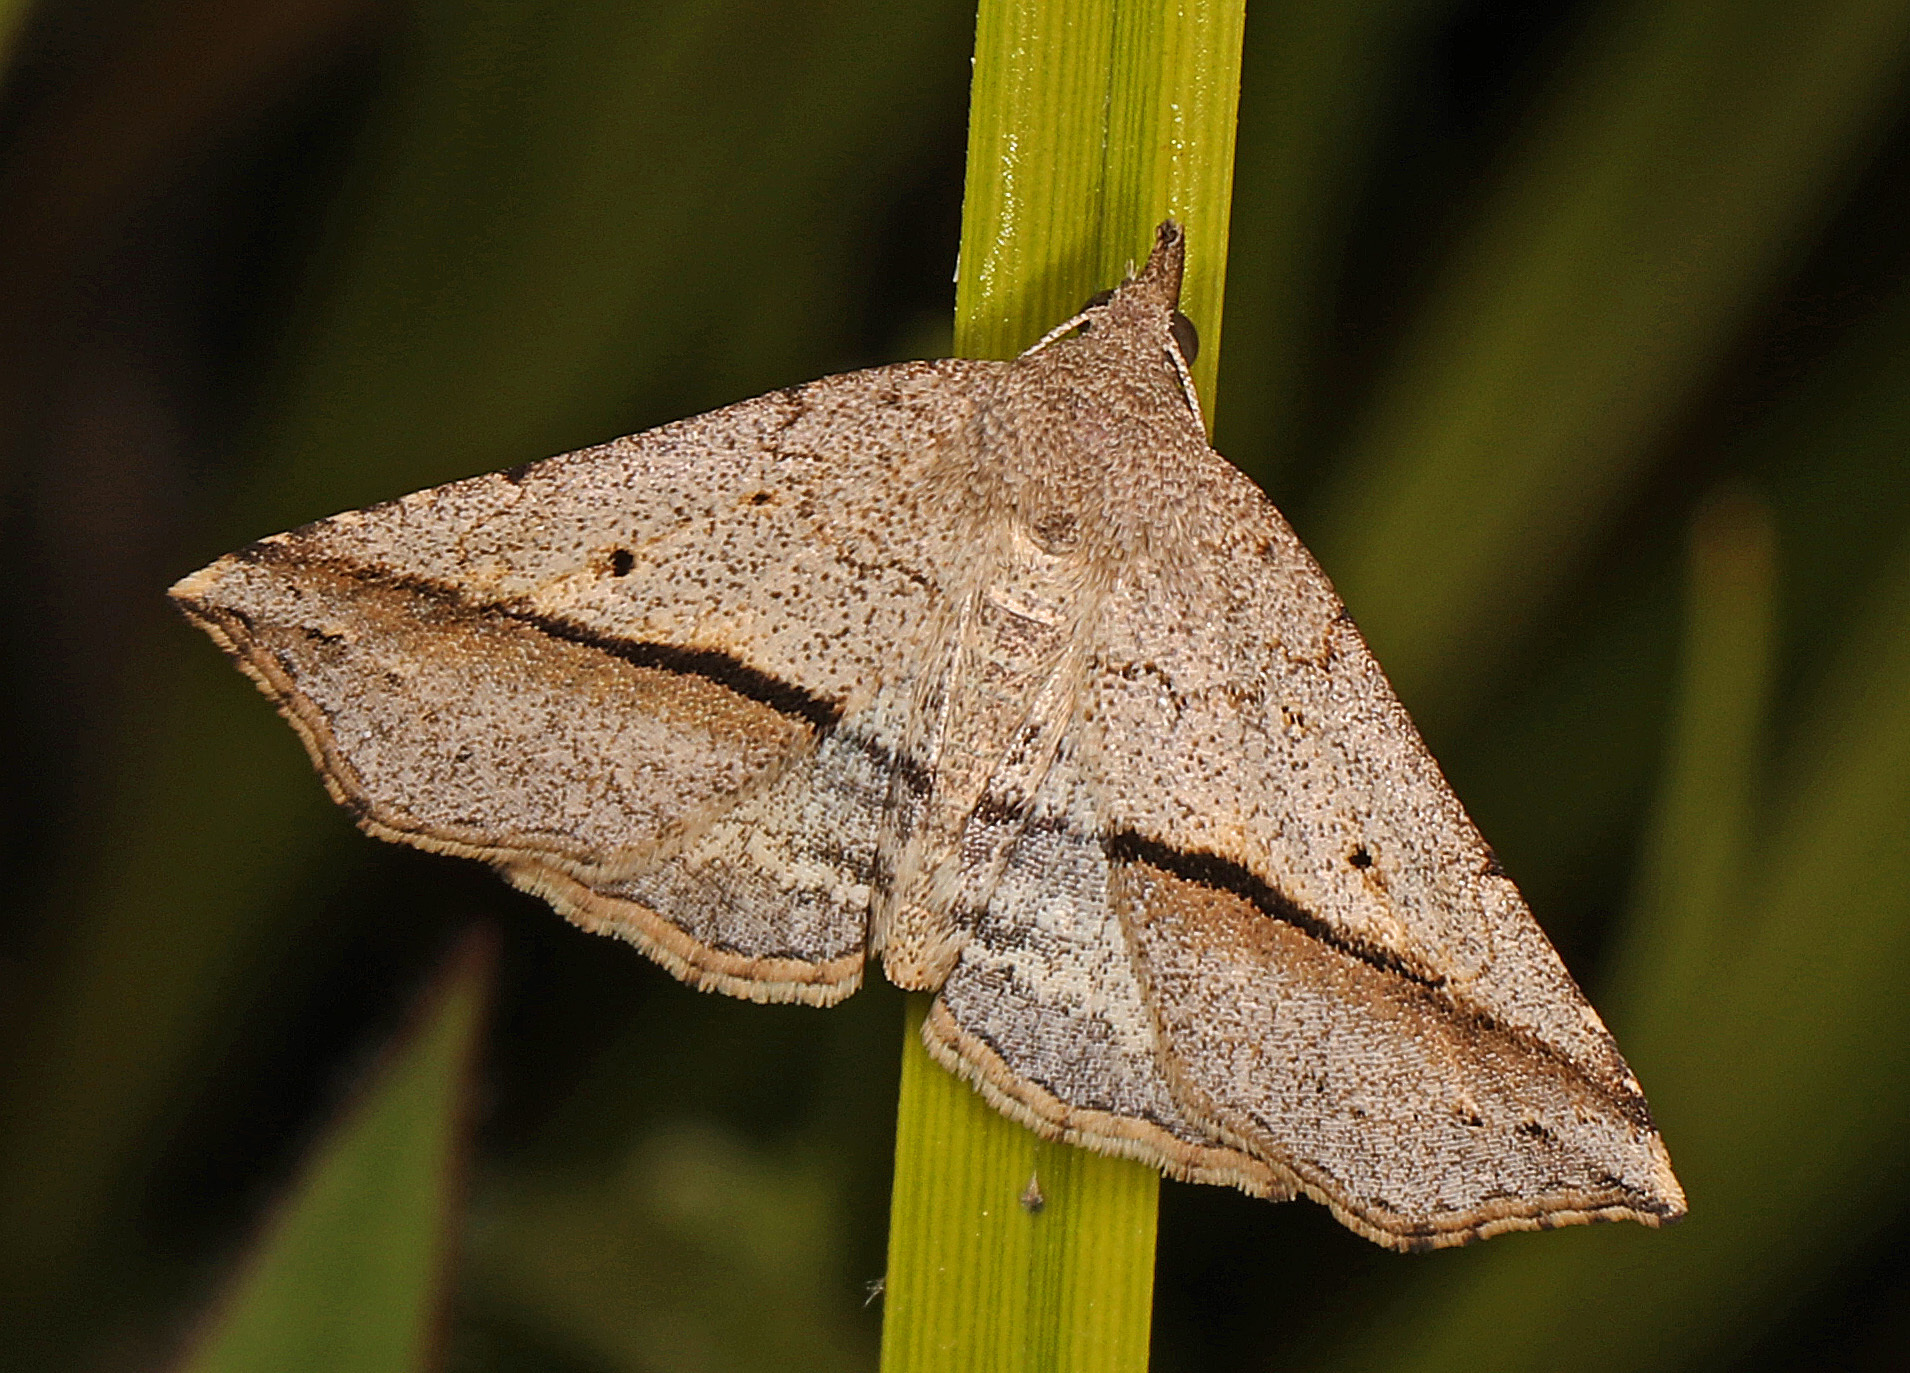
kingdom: Animalia
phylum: Arthropoda
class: Insecta
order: Lepidoptera
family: Erebidae
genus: Spargaloma
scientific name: Spargaloma perditalis
